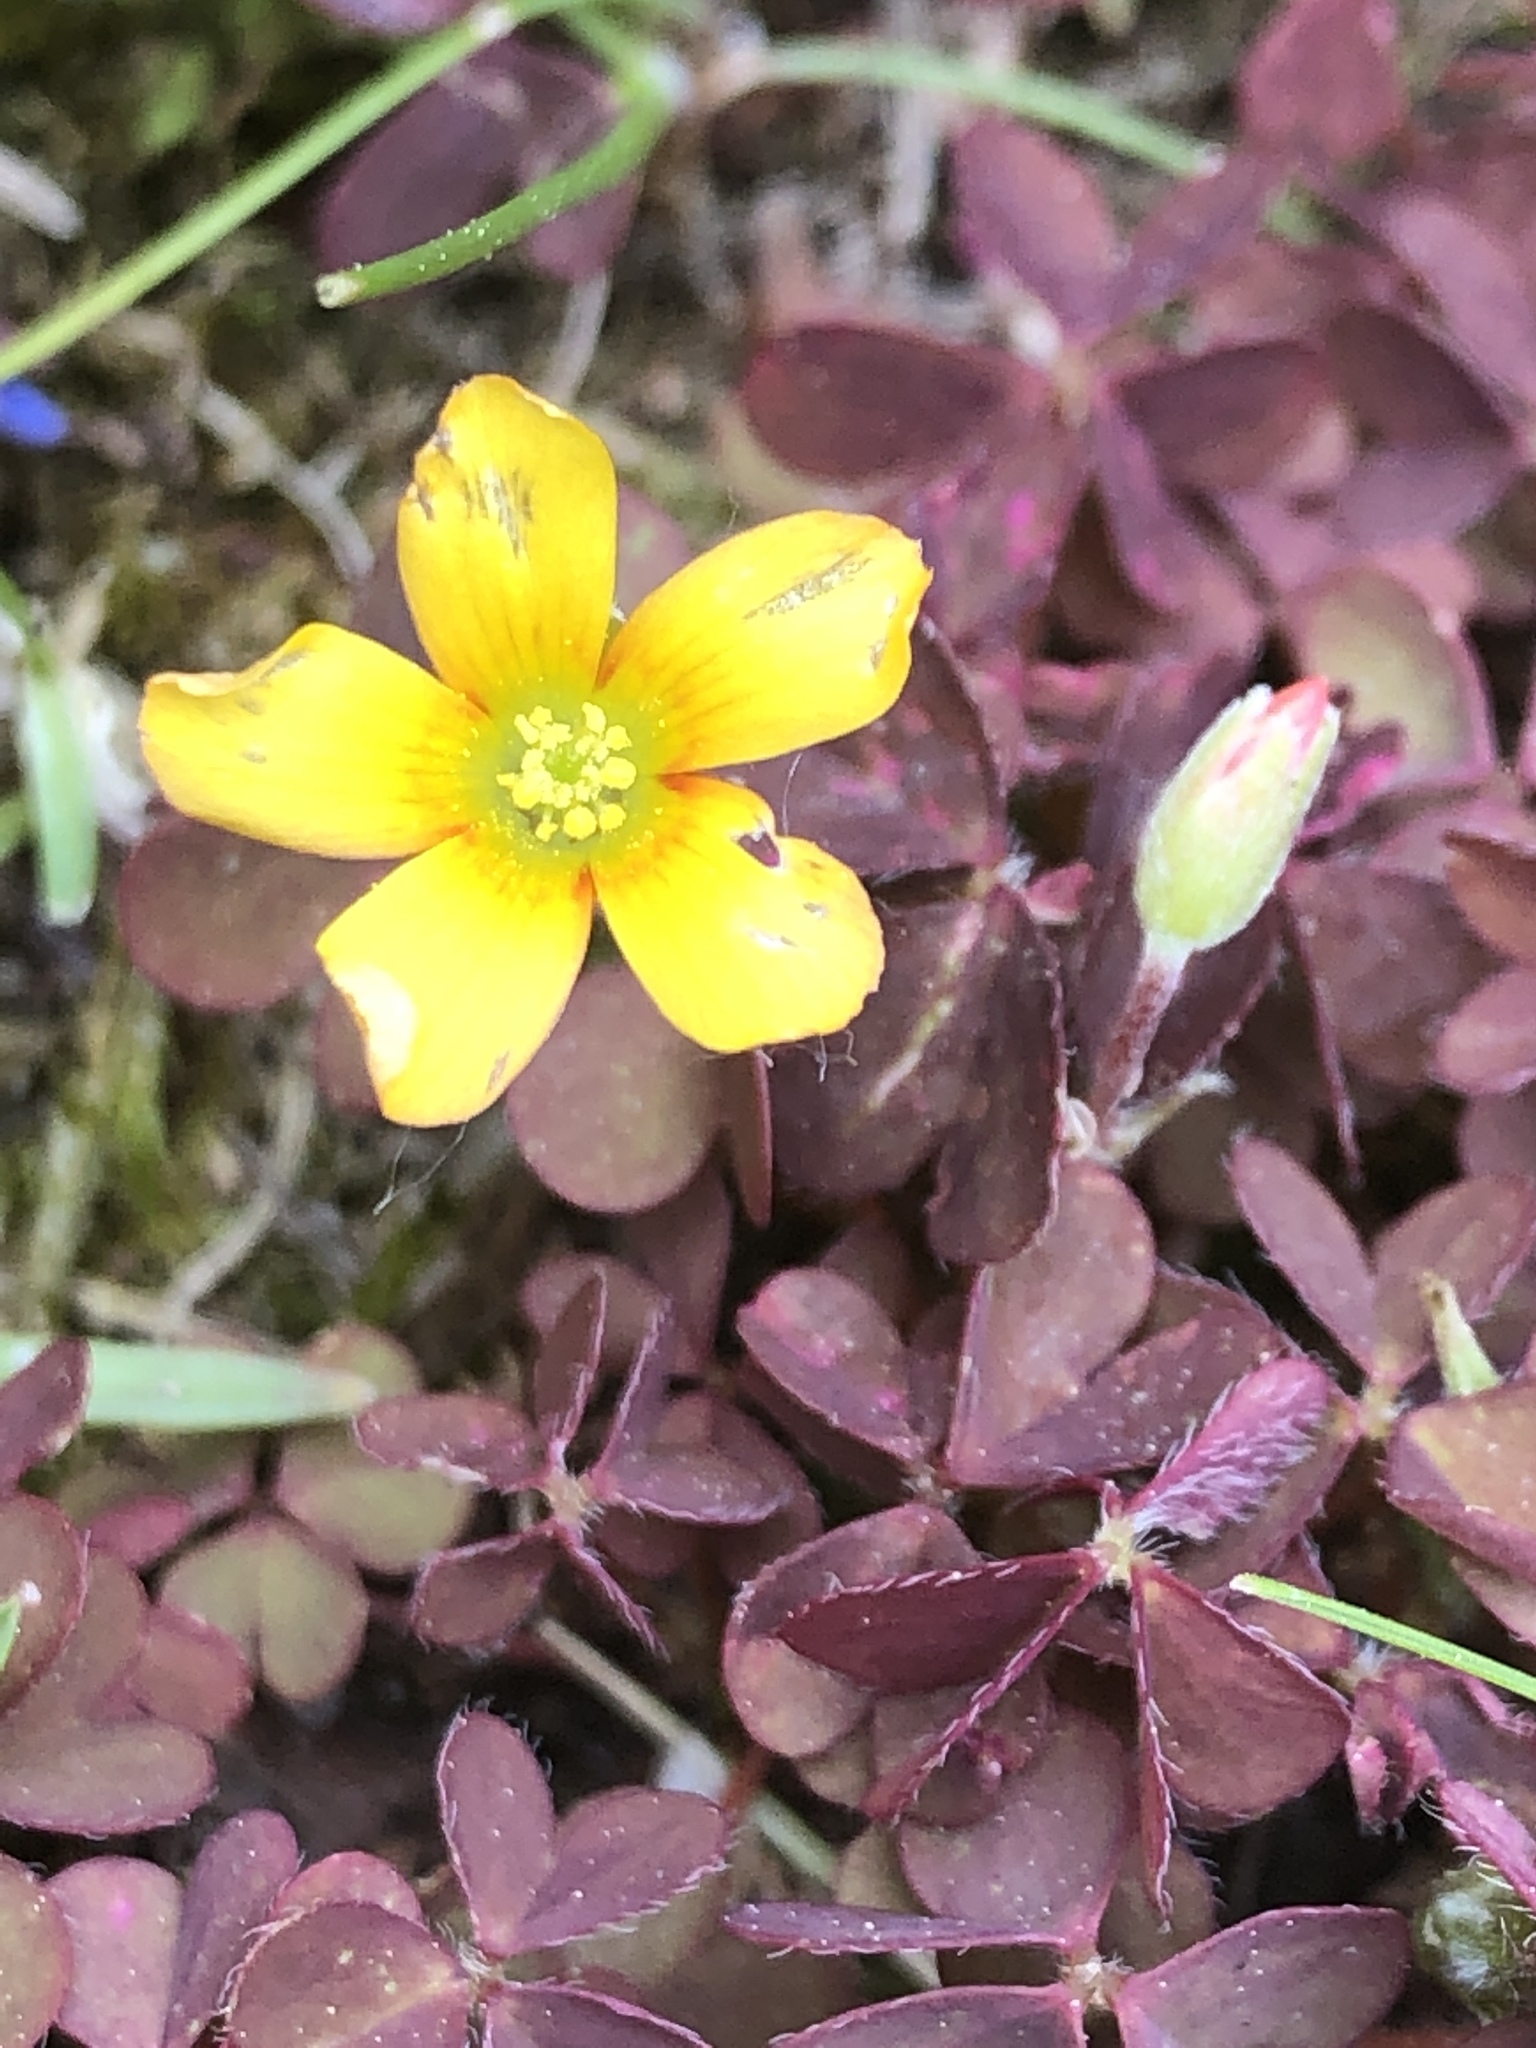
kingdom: Plantae
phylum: Tracheophyta
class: Magnoliopsida
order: Oxalidales
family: Oxalidaceae
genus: Oxalis
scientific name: Oxalis corniculata
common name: Procumbent yellow-sorrel
